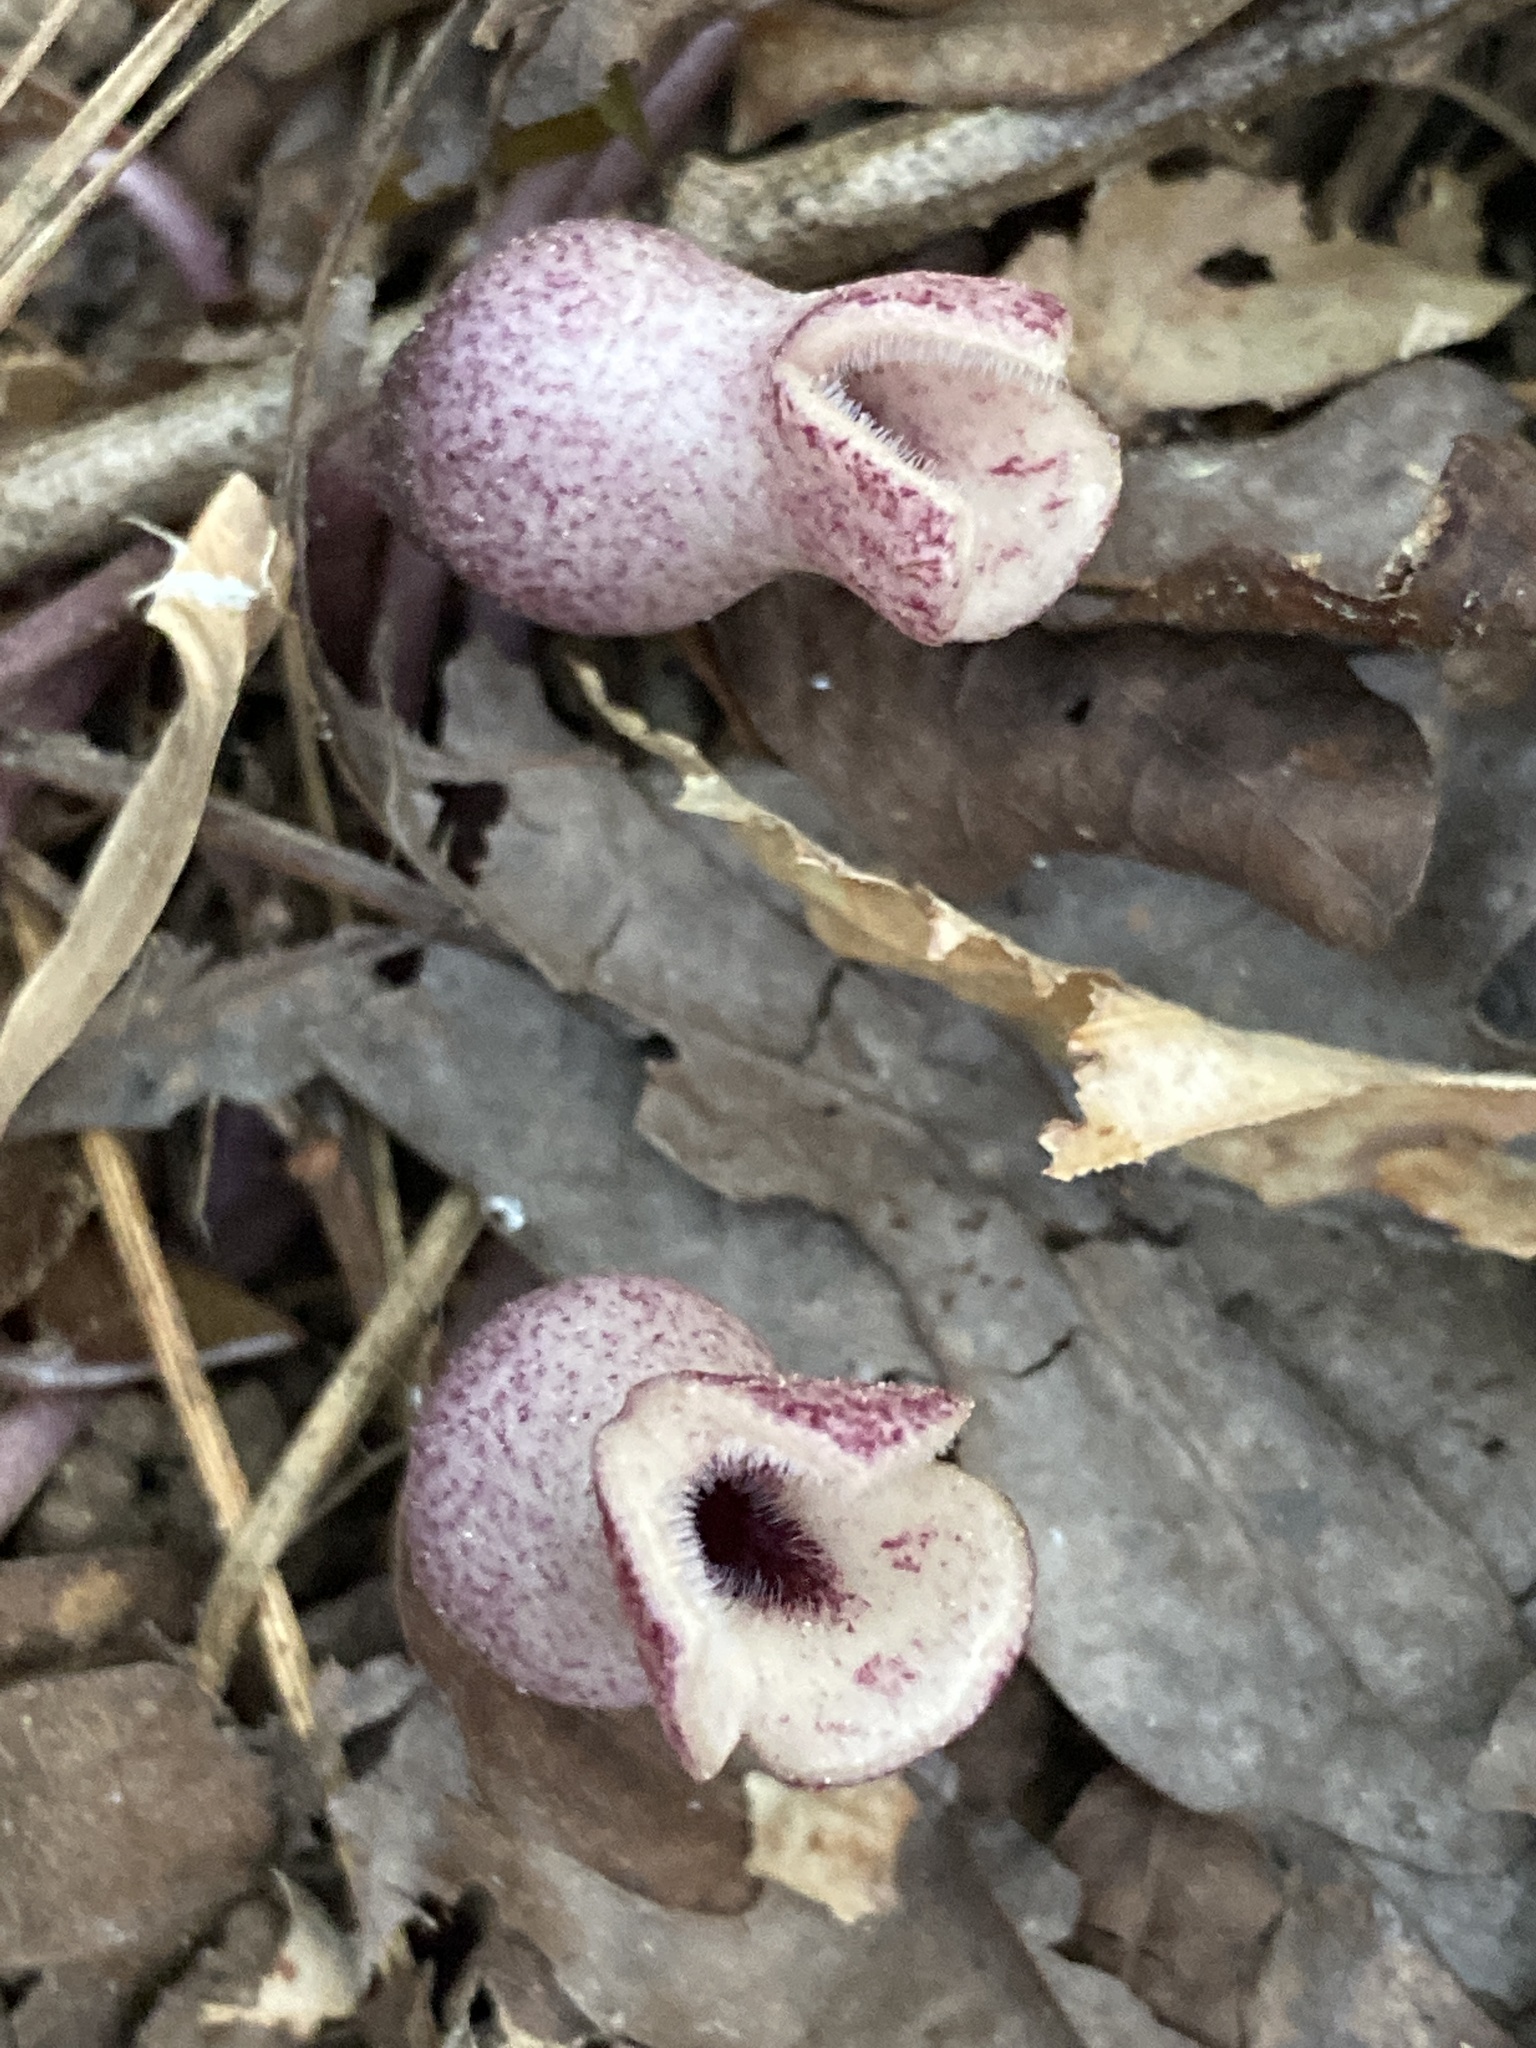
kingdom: Plantae
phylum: Tracheophyta
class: Magnoliopsida
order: Piperales
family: Aristolochiaceae
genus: Hexastylis
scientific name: Hexastylis arifolia
